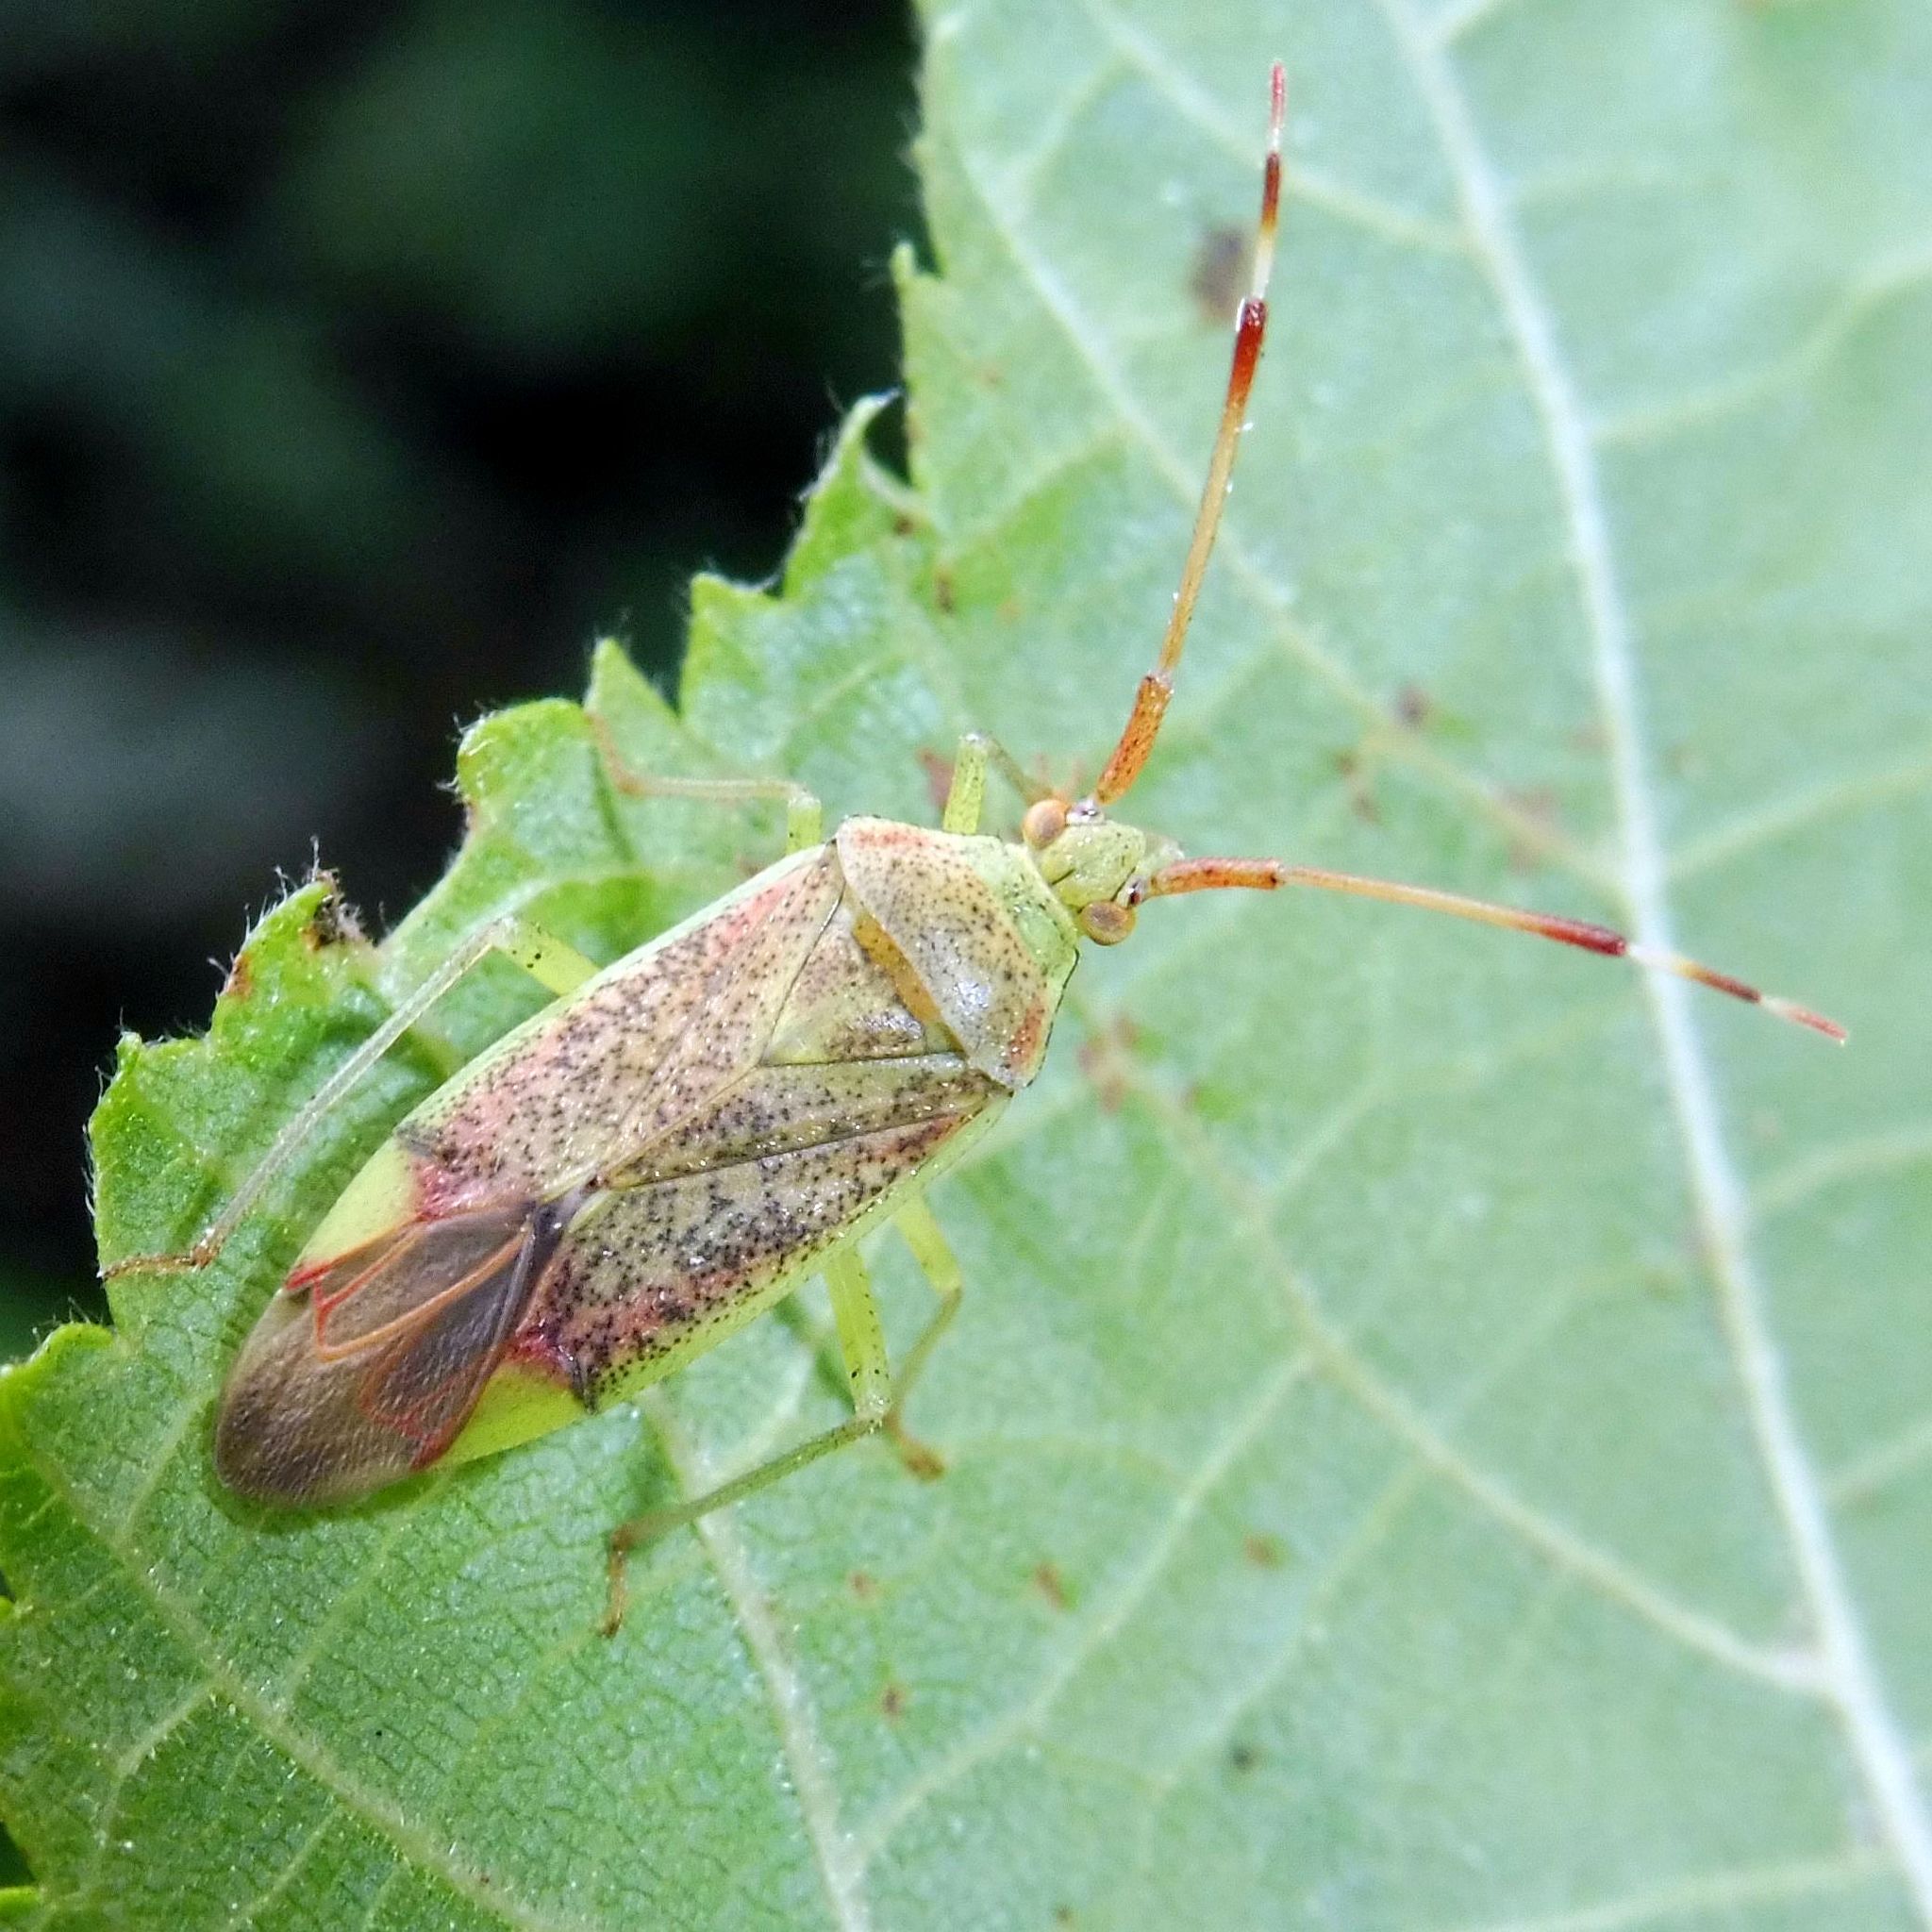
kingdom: Animalia
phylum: Arthropoda
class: Insecta
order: Hemiptera
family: Miridae
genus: Pantilius
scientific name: Pantilius tunicatus
